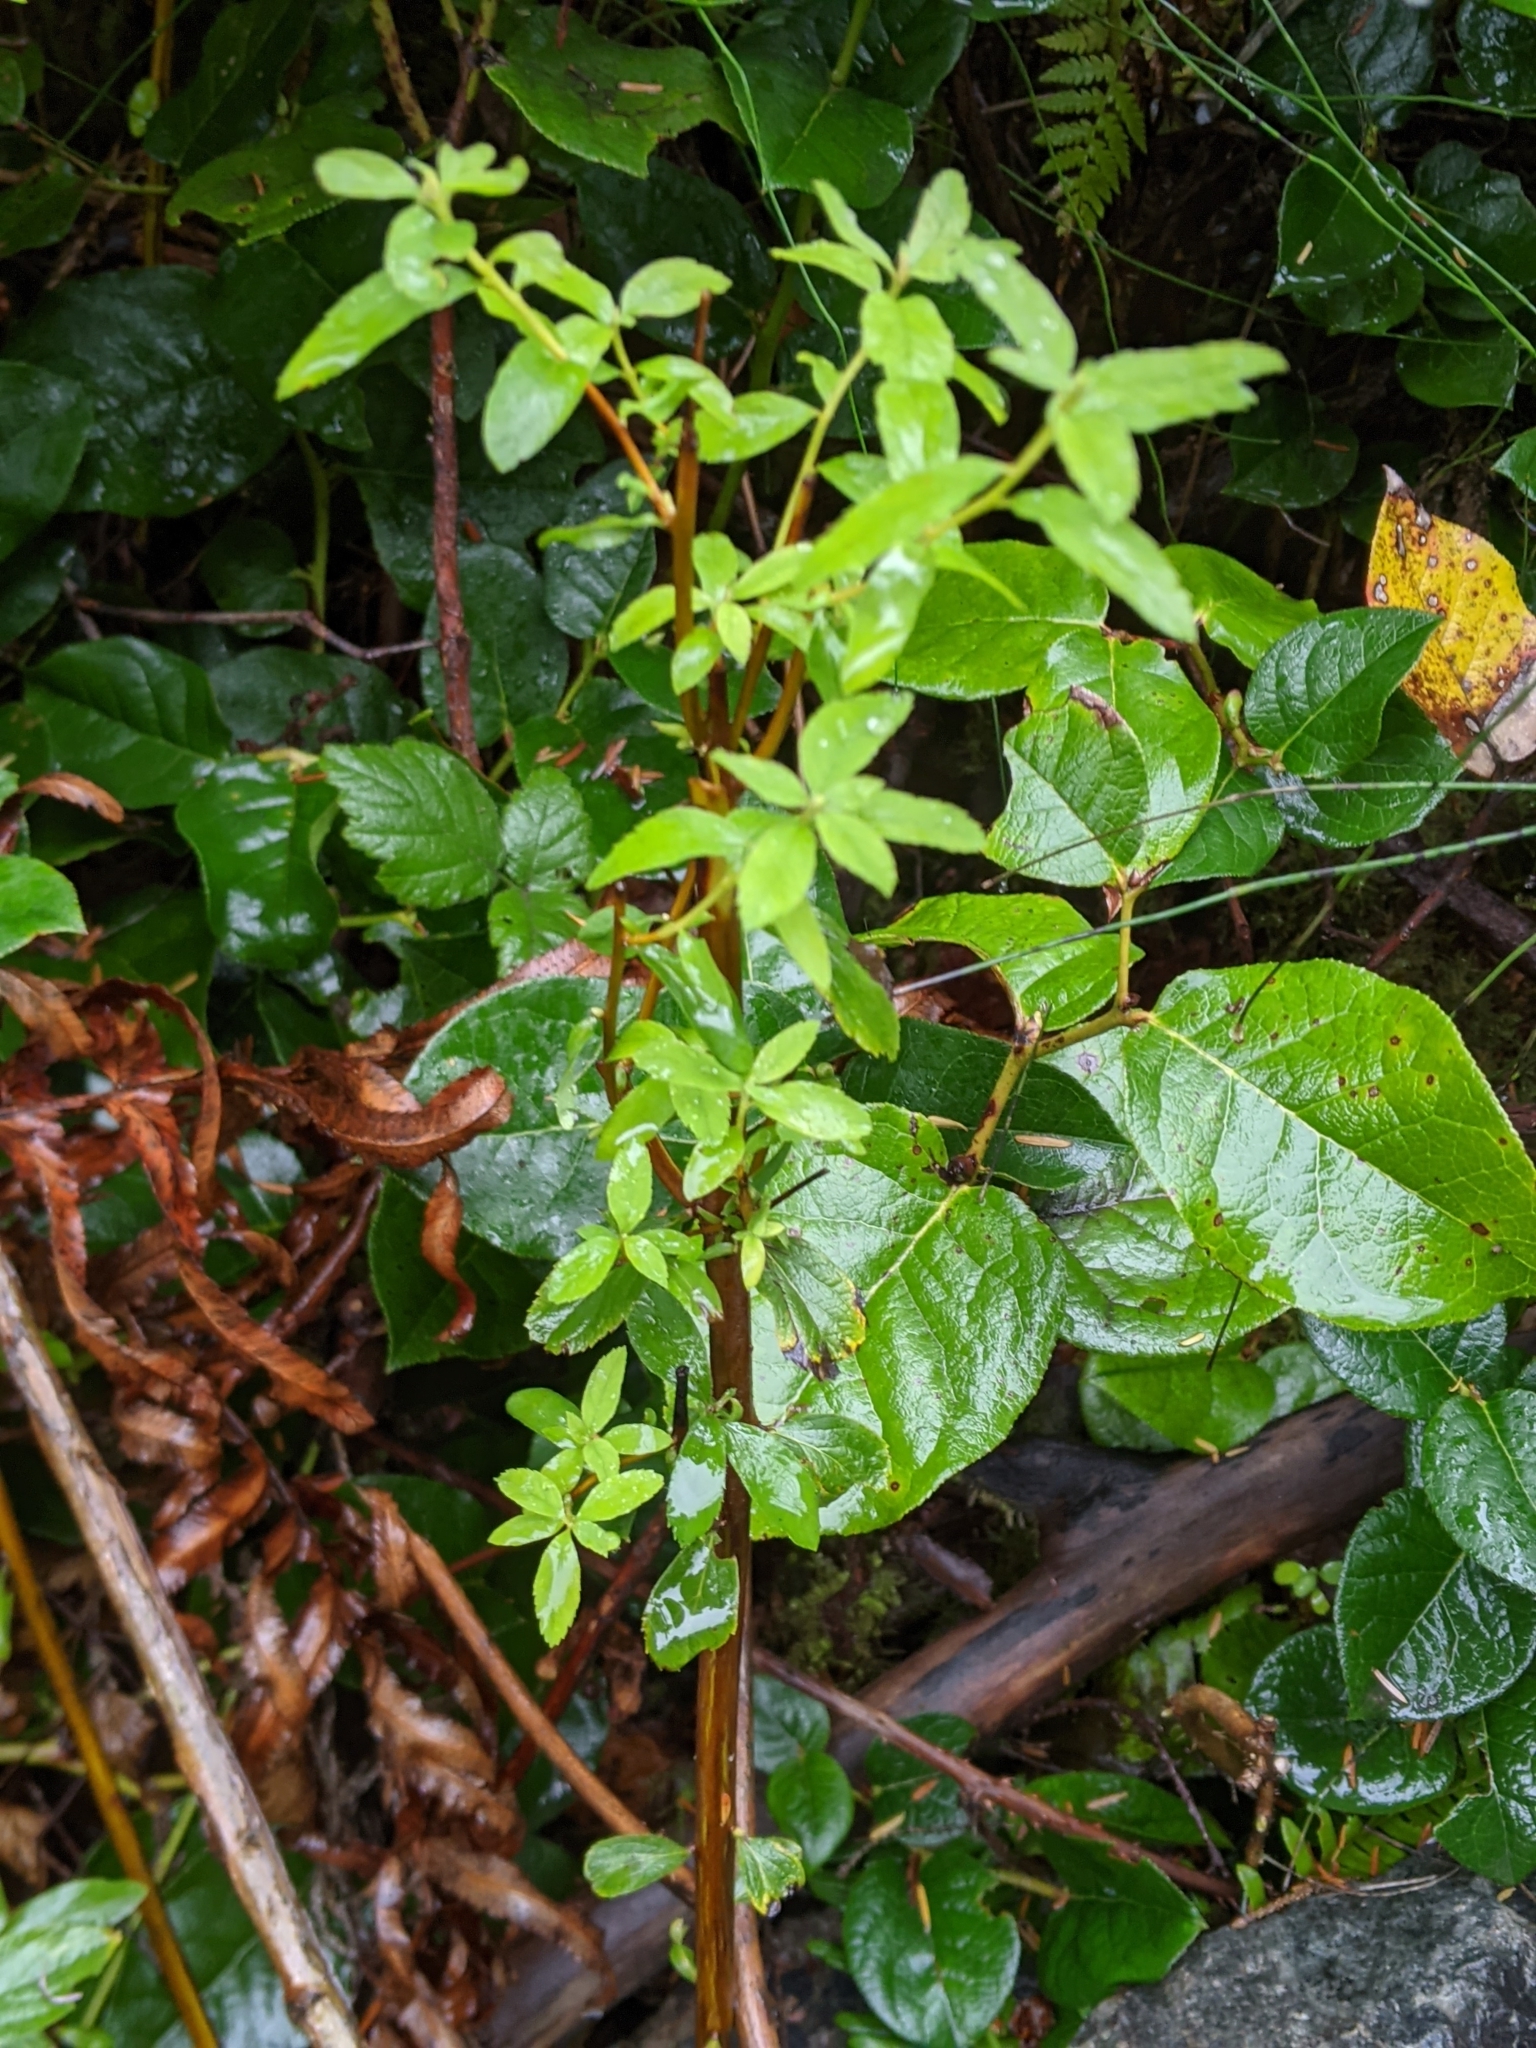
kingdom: Plantae
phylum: Tracheophyta
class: Magnoliopsida
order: Rosales
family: Rosaceae
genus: Spiraea
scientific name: Spiraea douglasii
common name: Steeplebush
